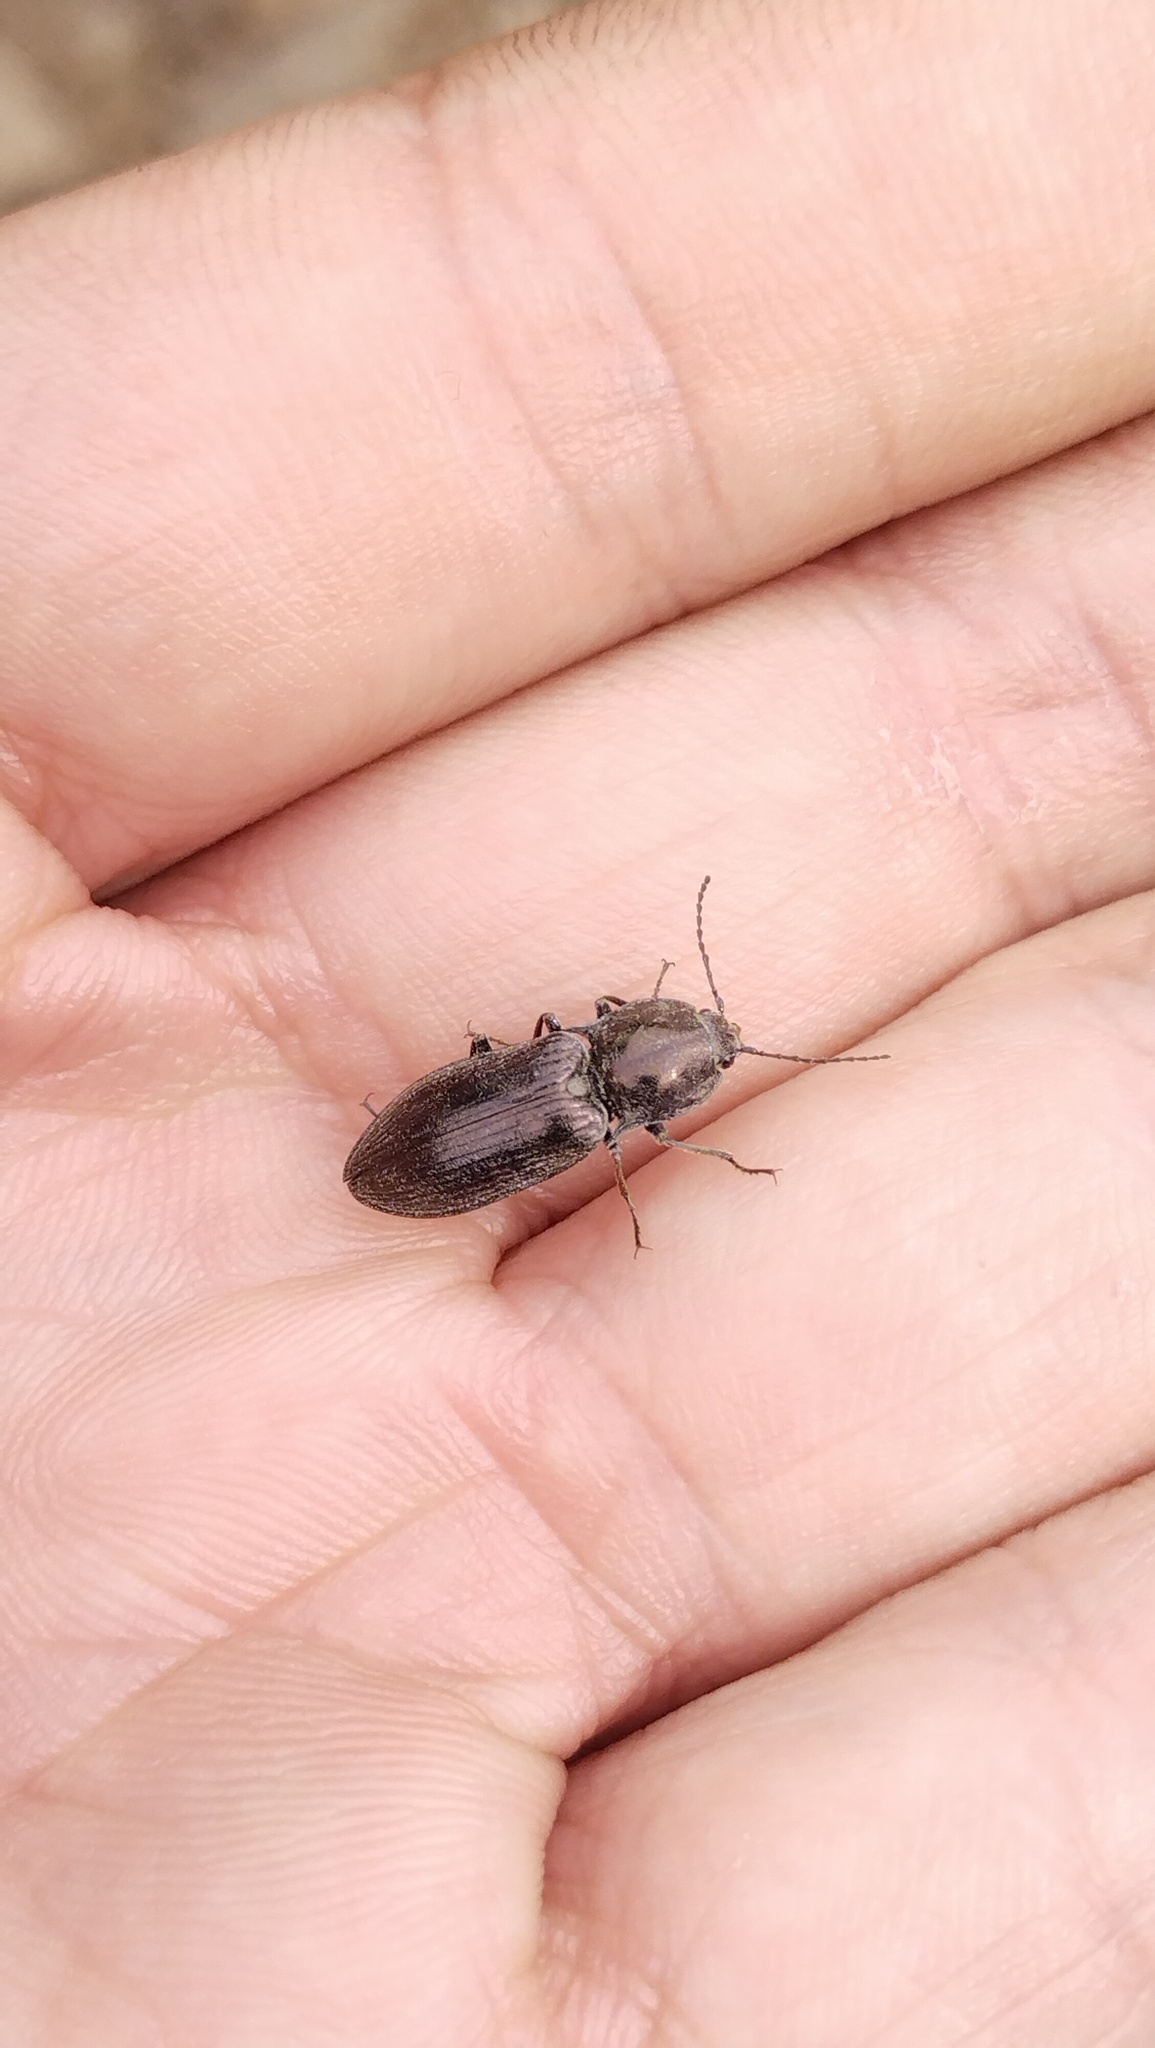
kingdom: Animalia
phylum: Arthropoda
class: Insecta
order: Coleoptera
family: Elateridae
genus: Selatosomus
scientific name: Selatosomus
